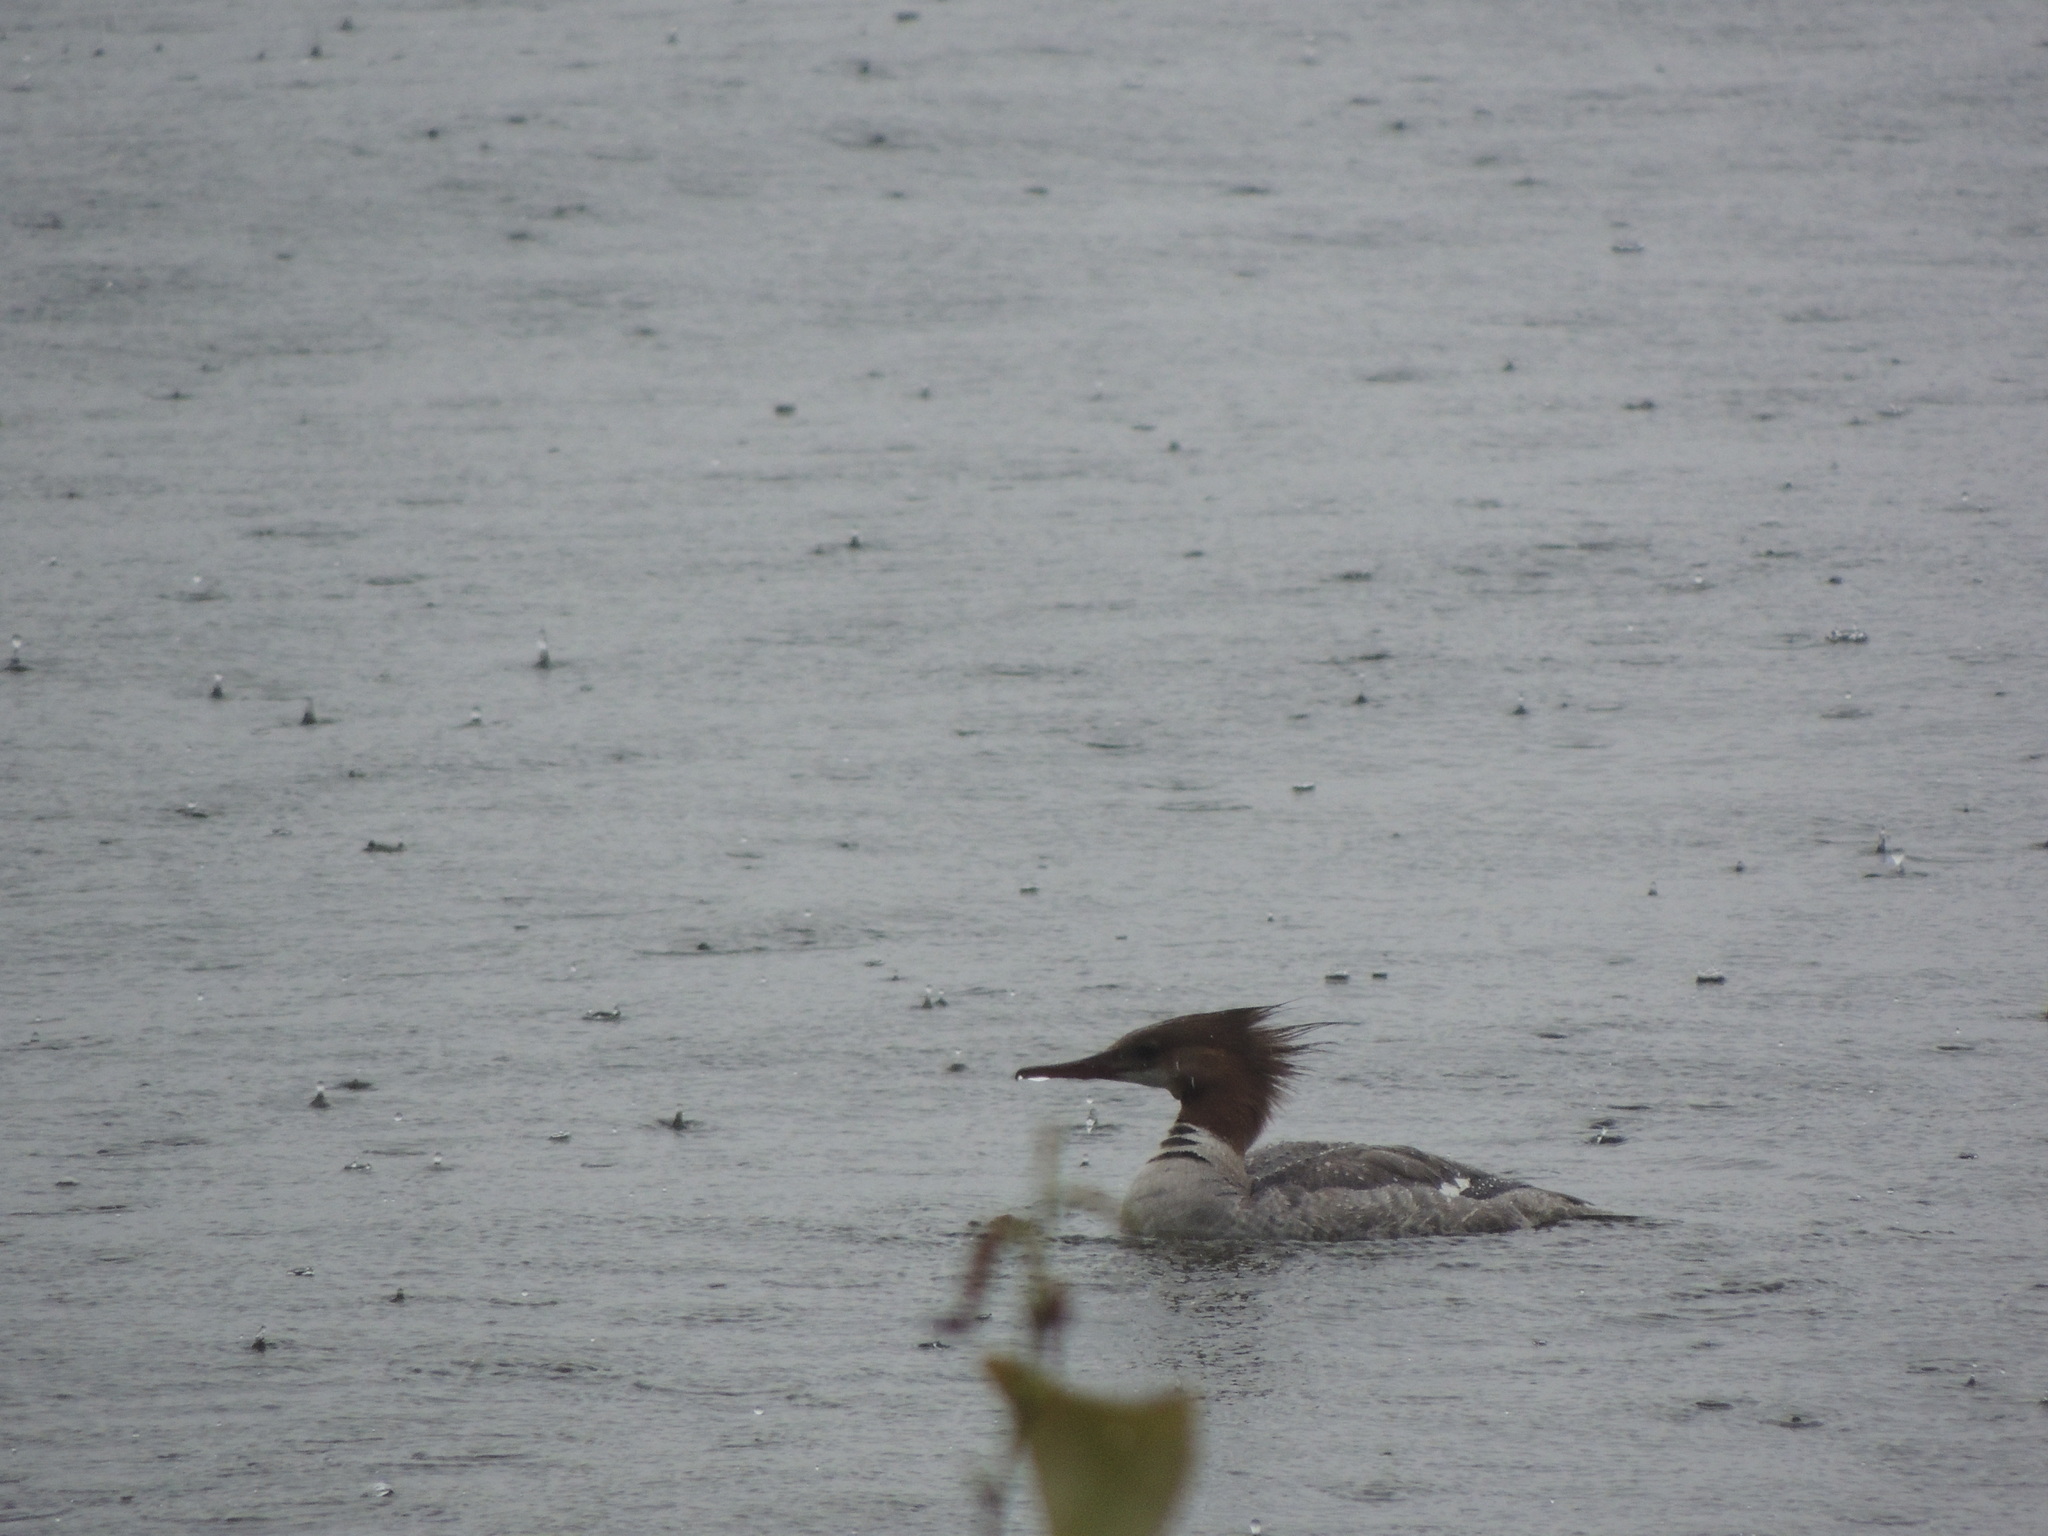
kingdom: Animalia
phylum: Chordata
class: Aves
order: Anseriformes
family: Anatidae
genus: Mergus
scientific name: Mergus merganser
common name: Common merganser
